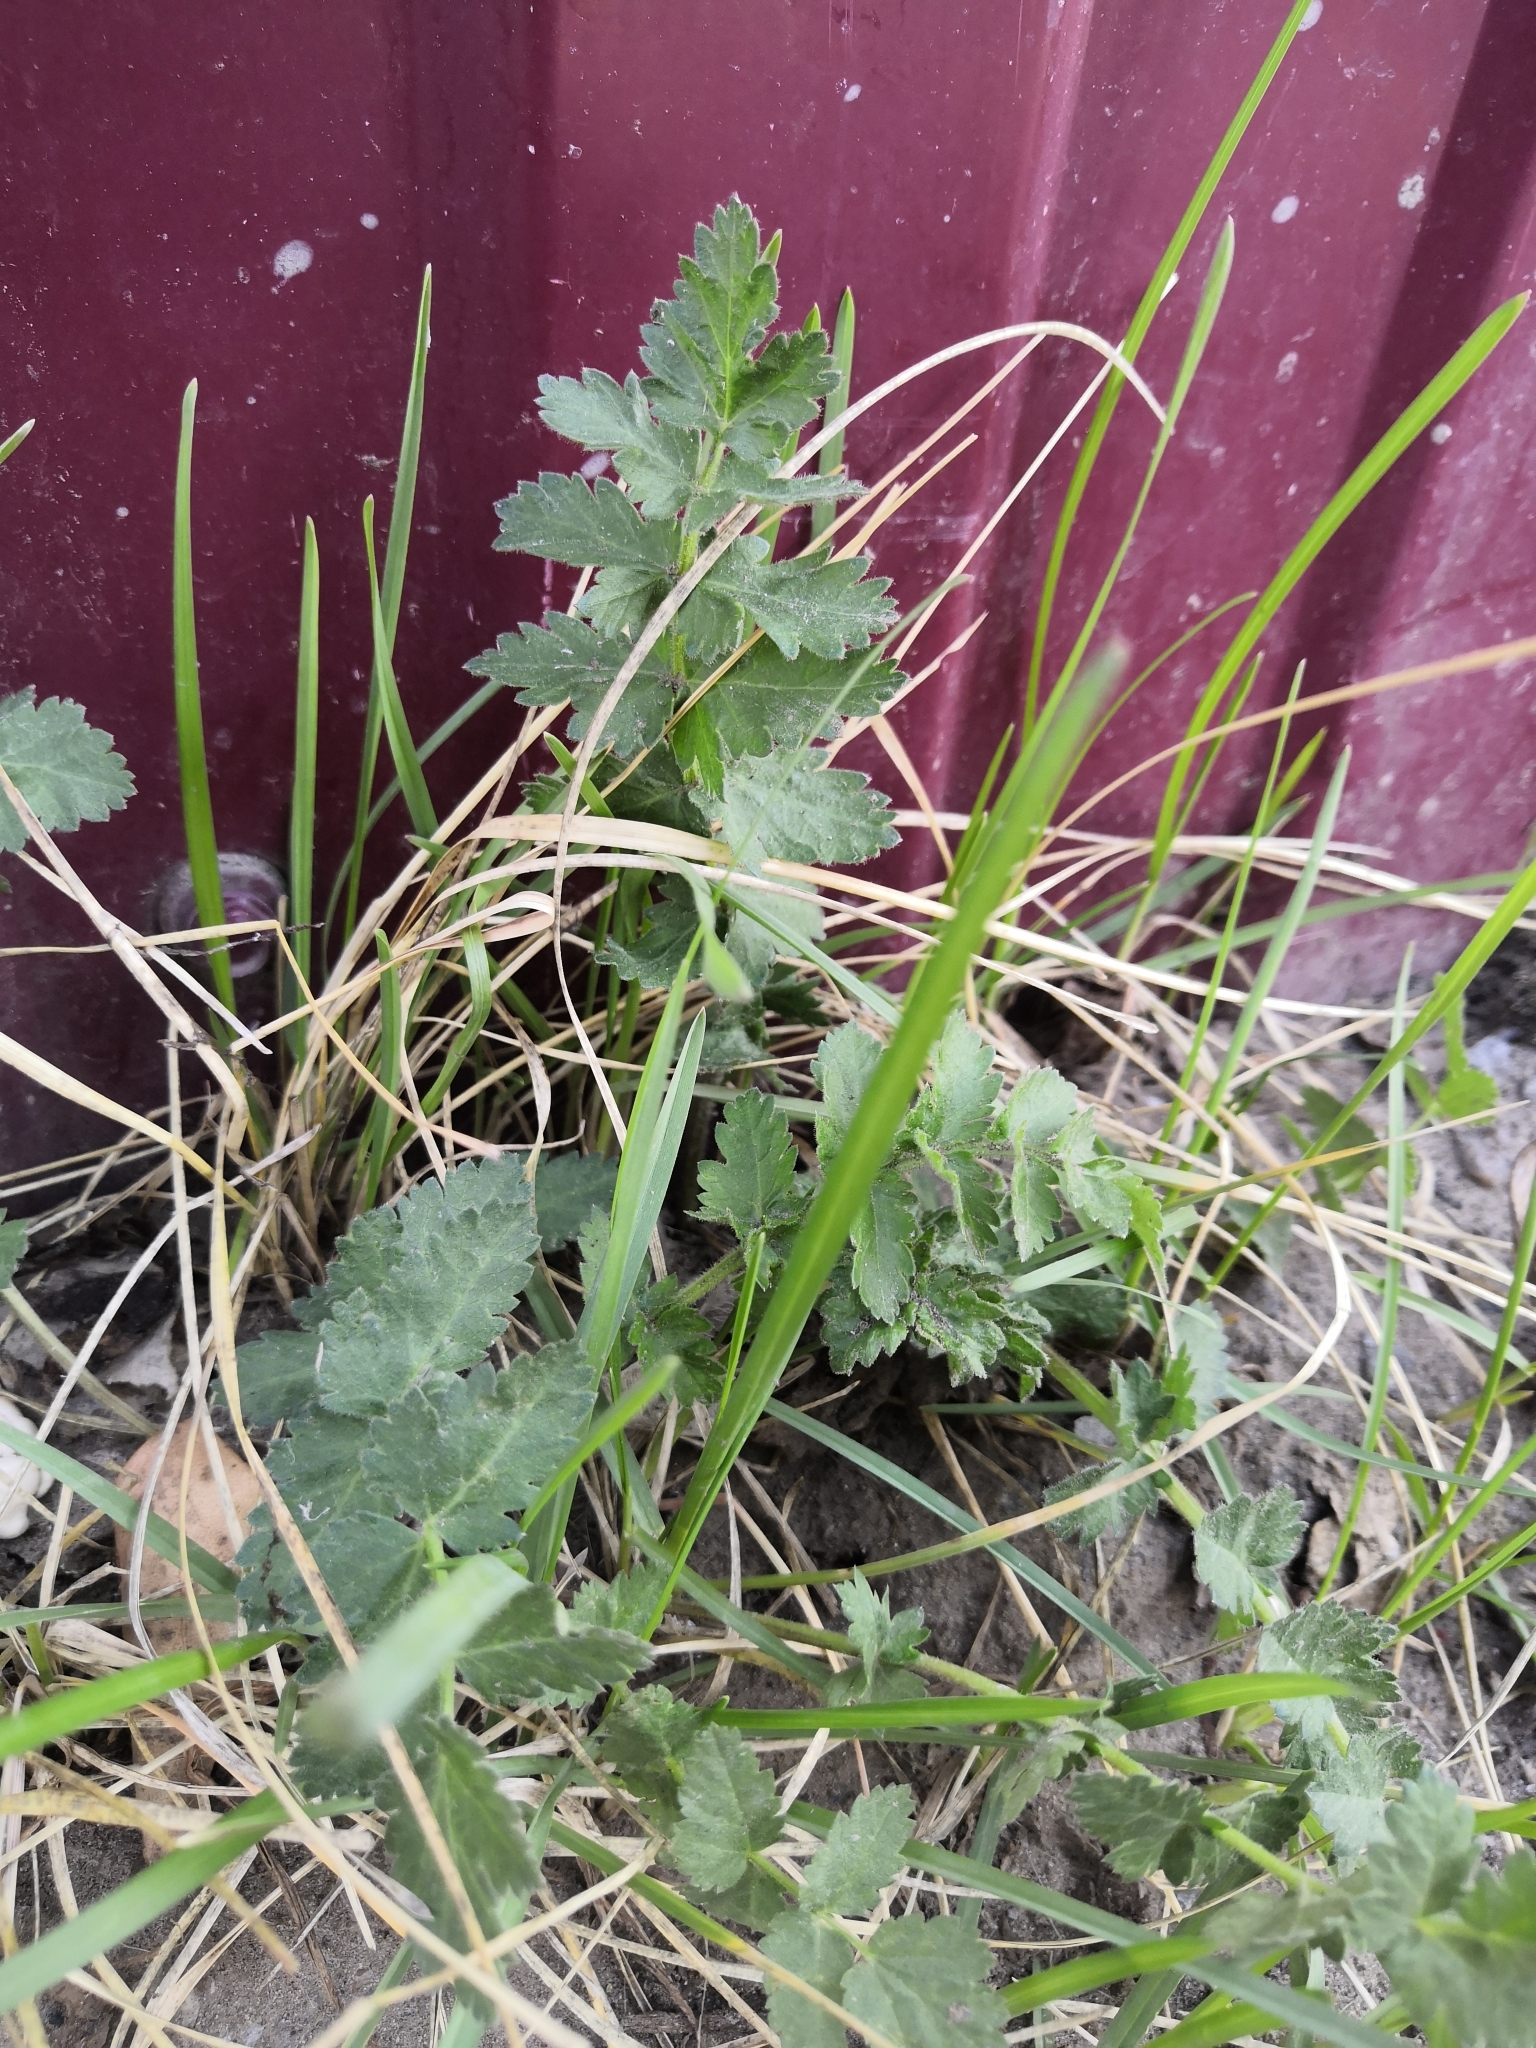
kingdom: Plantae
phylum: Tracheophyta
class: Magnoliopsida
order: Apiales
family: Apiaceae
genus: Pimpinella
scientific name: Pimpinella saxifraga
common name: Burnet-saxifrage
